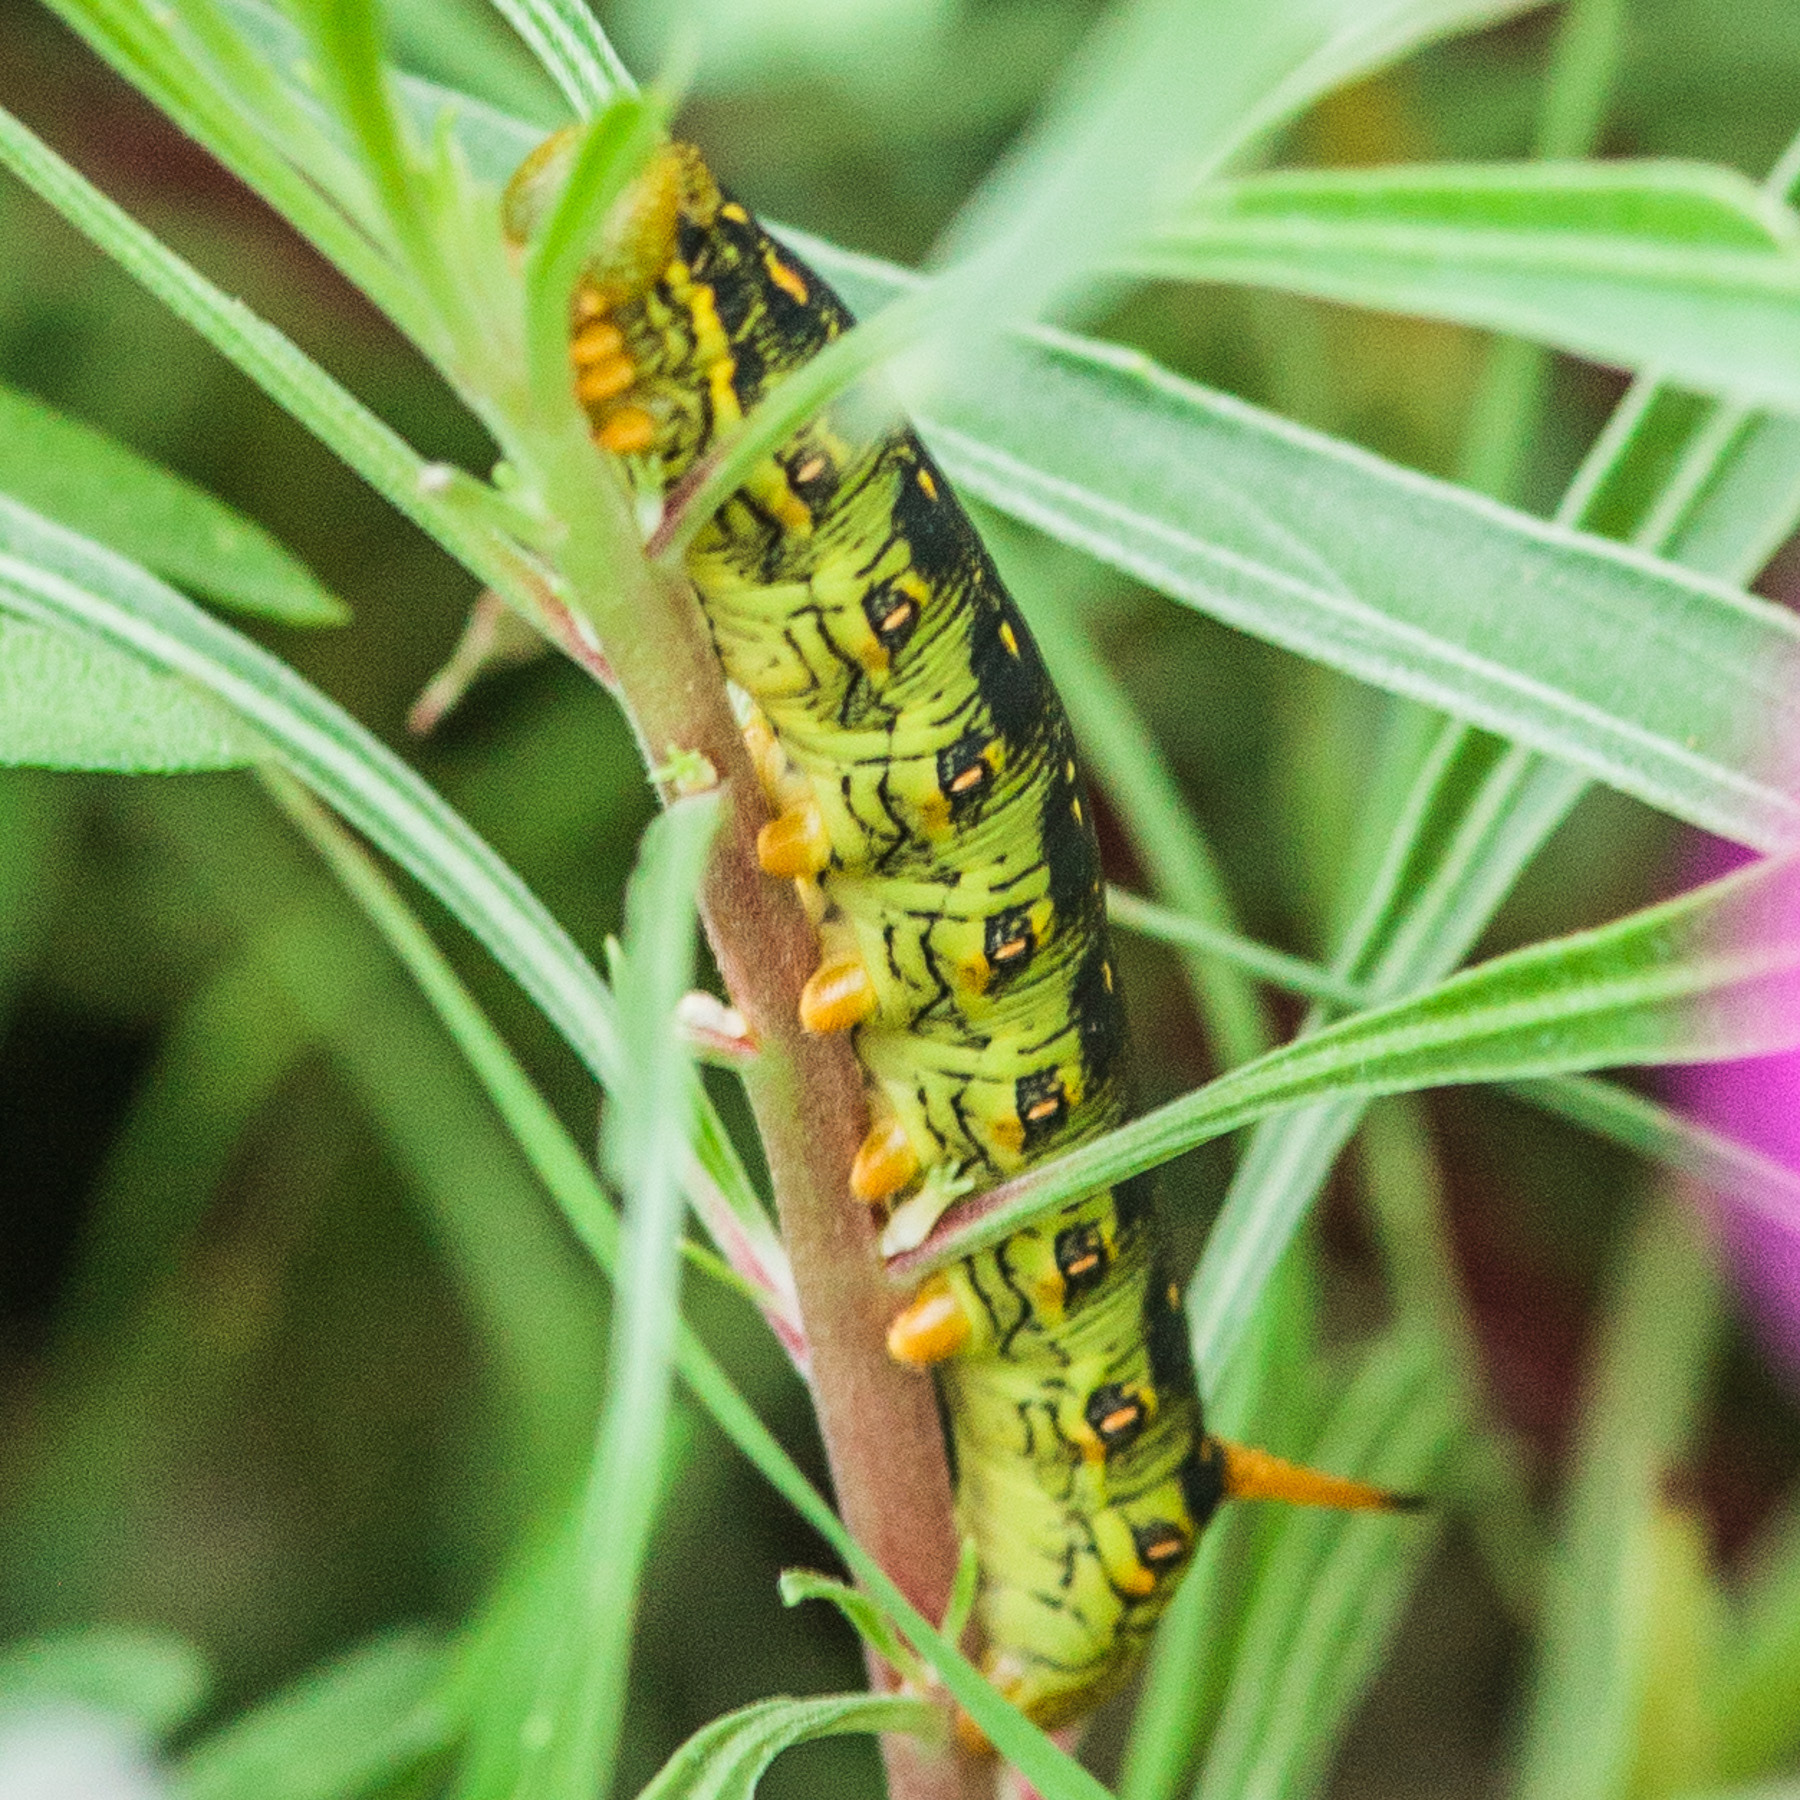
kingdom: Animalia
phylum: Arthropoda
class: Insecta
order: Lepidoptera
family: Sphingidae
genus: Hyles
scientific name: Hyles lineata
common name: White-lined sphinx
